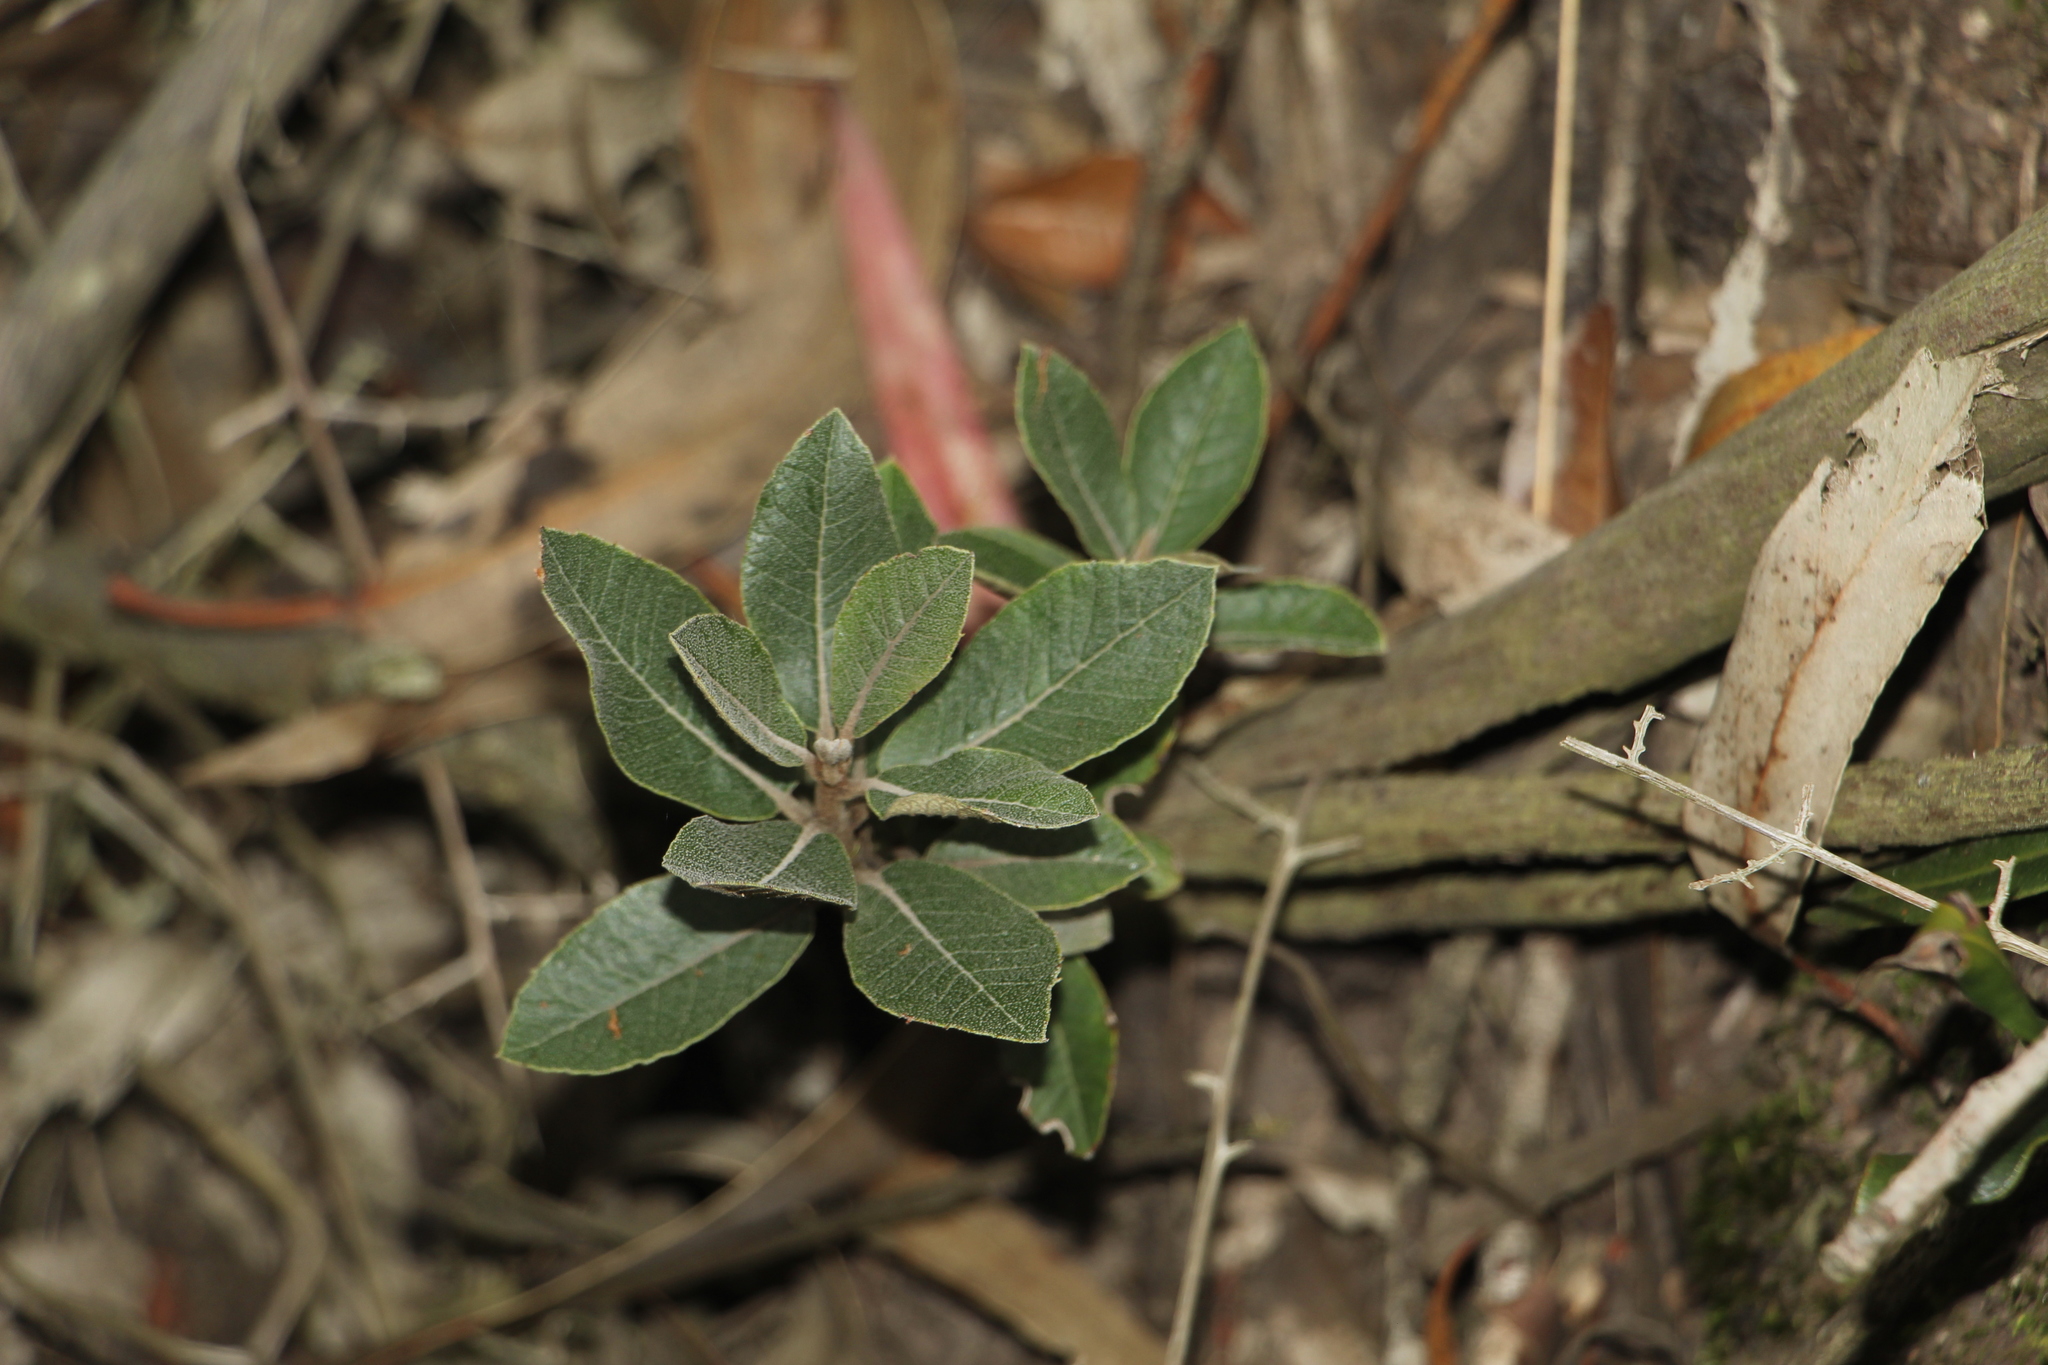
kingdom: Plantae
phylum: Tracheophyta
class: Magnoliopsida
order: Ericales
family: Clethraceae
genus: Clethra
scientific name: Clethra fimbriata
